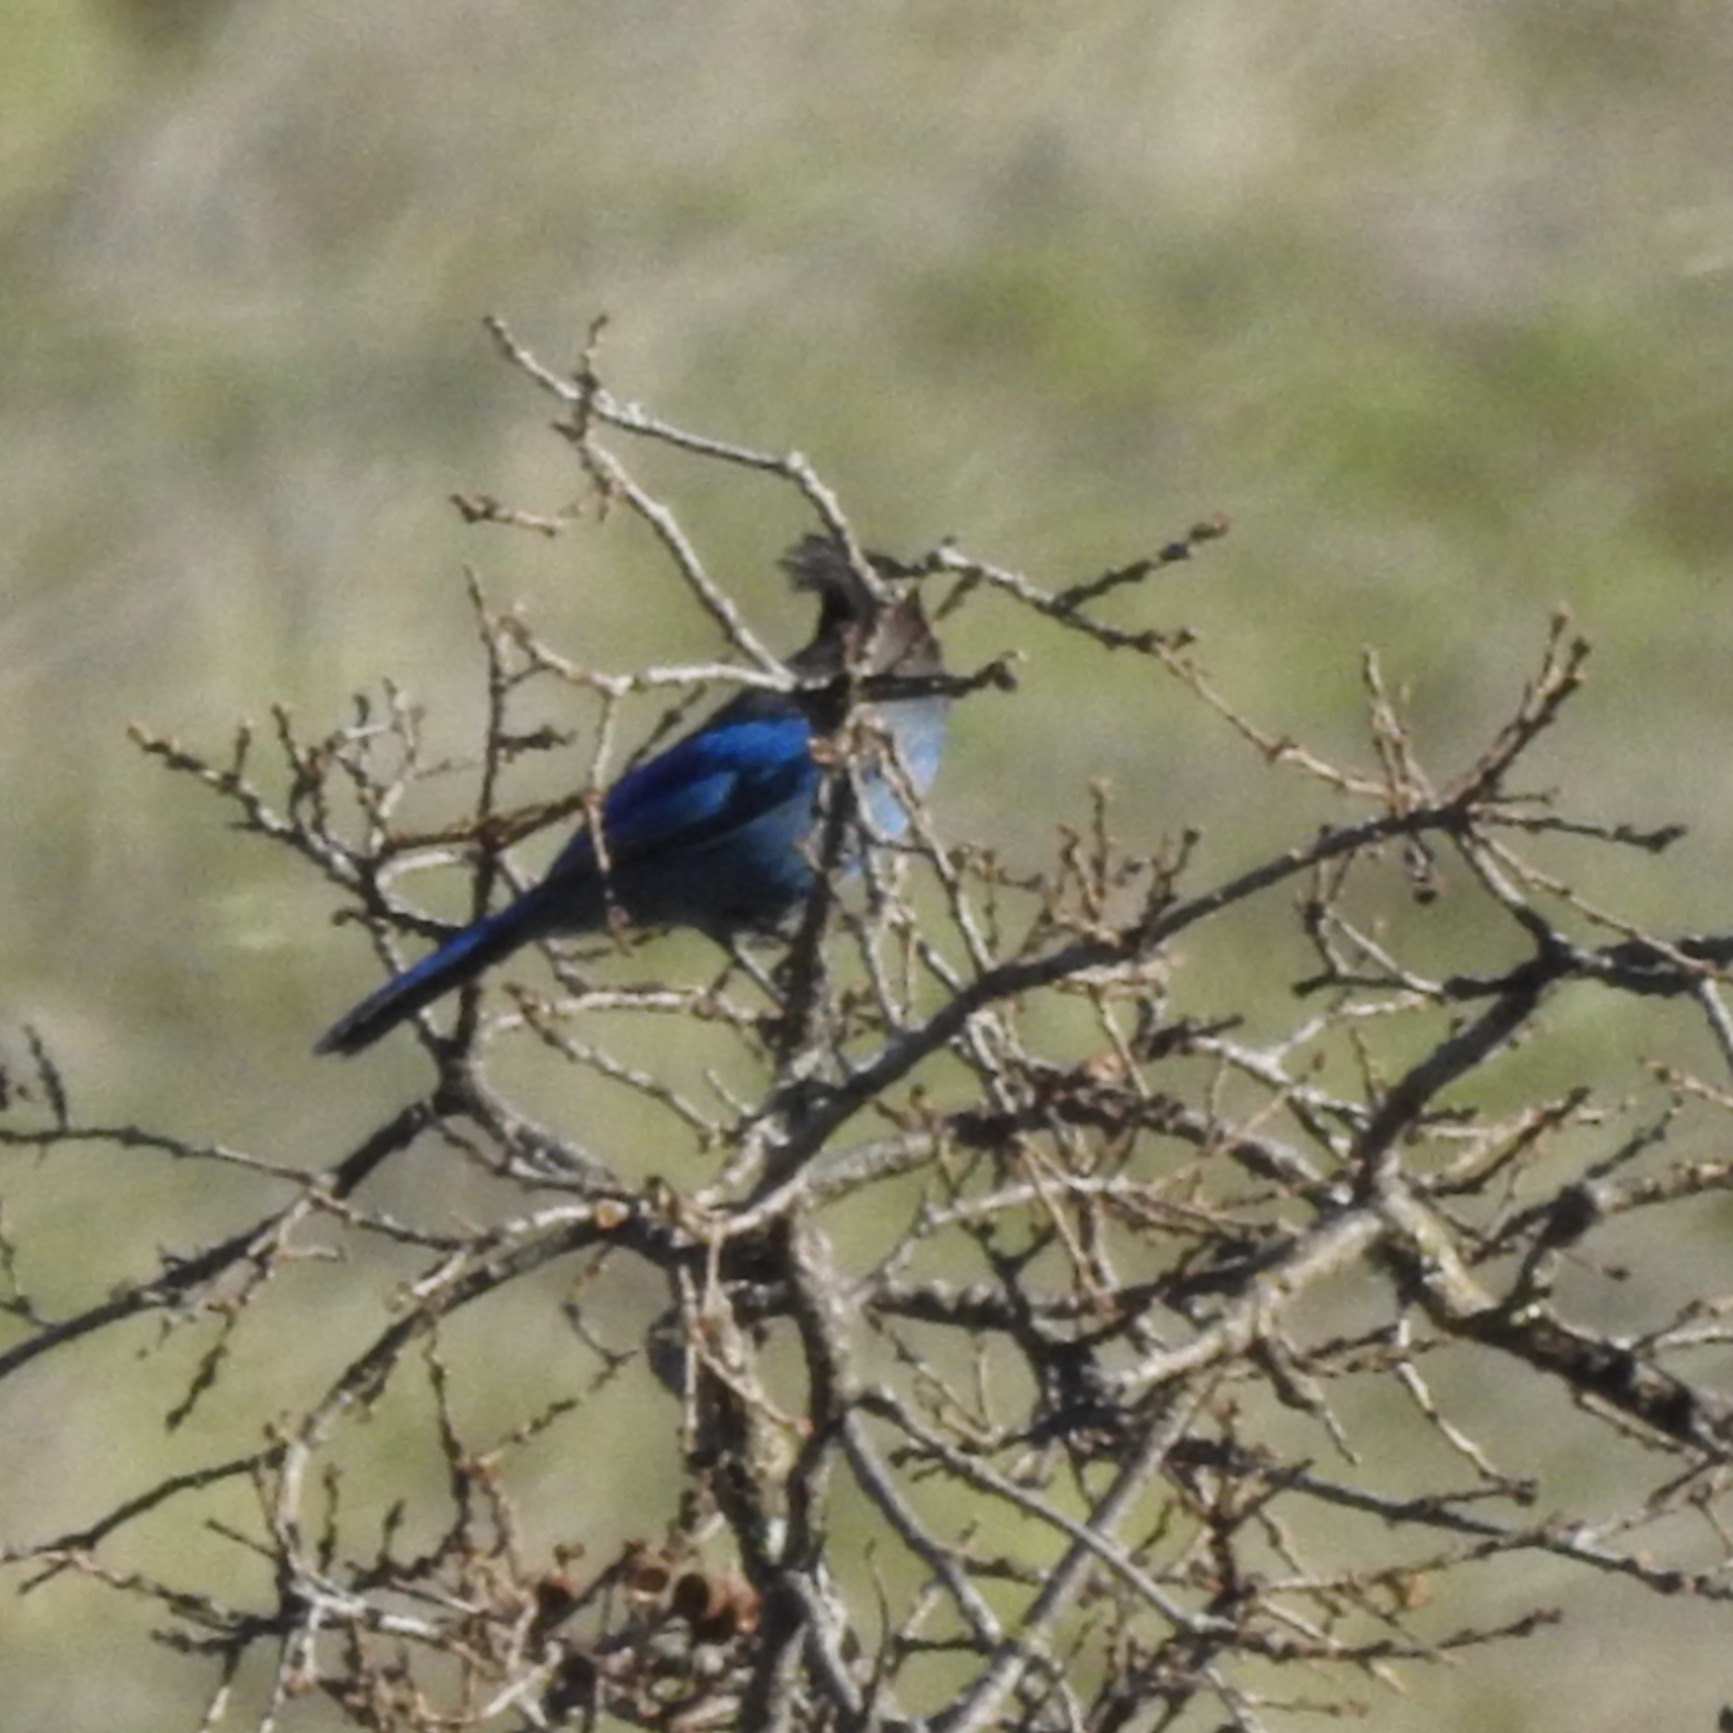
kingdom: Animalia
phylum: Chordata
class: Aves
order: Passeriformes
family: Corvidae
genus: Cyanocitta
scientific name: Cyanocitta stelleri
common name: Steller's jay
